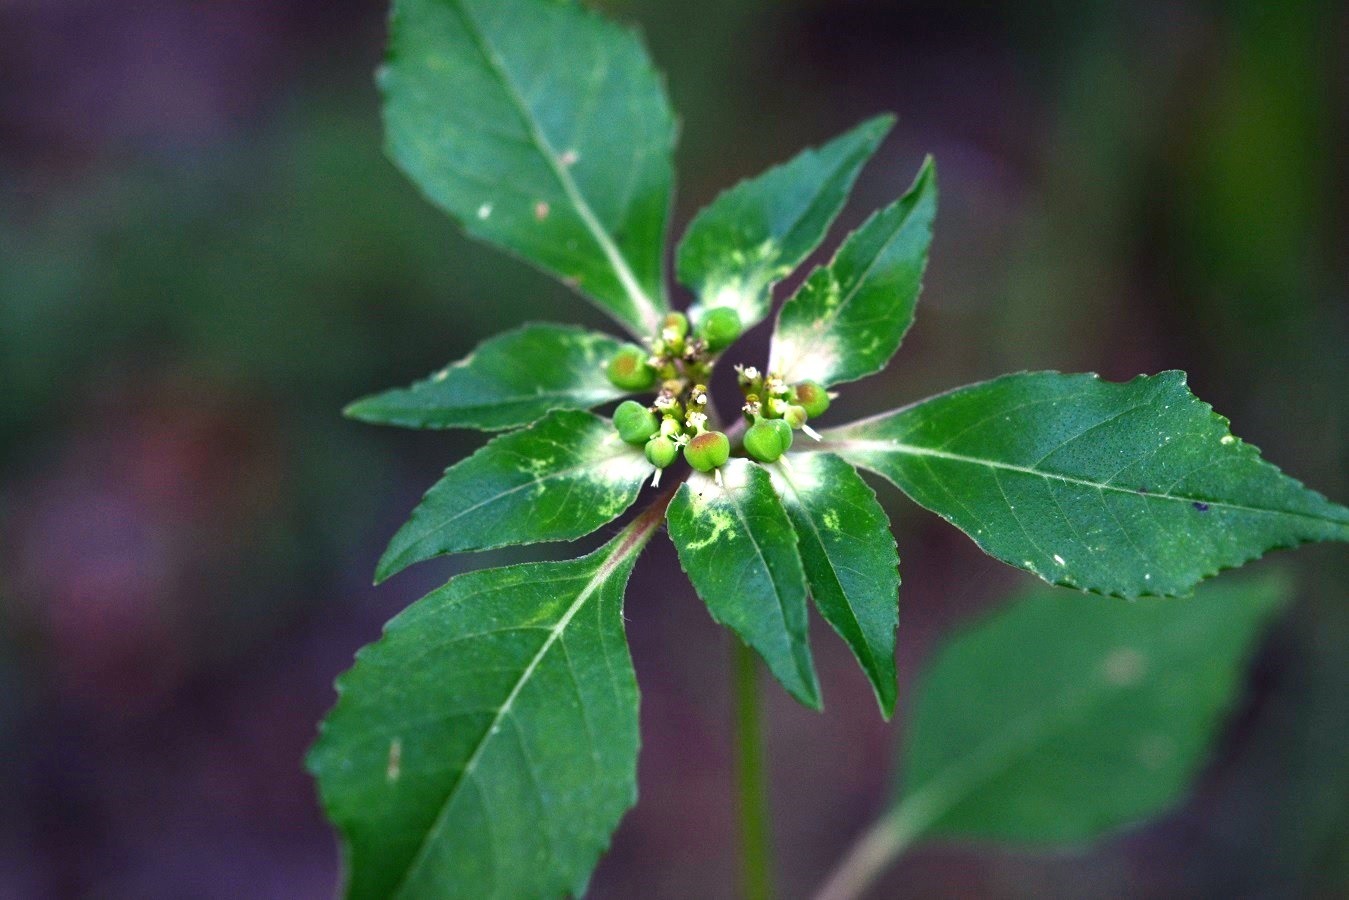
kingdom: Plantae
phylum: Tracheophyta
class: Magnoliopsida
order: Malpighiales
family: Euphorbiaceae
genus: Euphorbia
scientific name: Euphorbia dentata
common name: Dentate spurge
